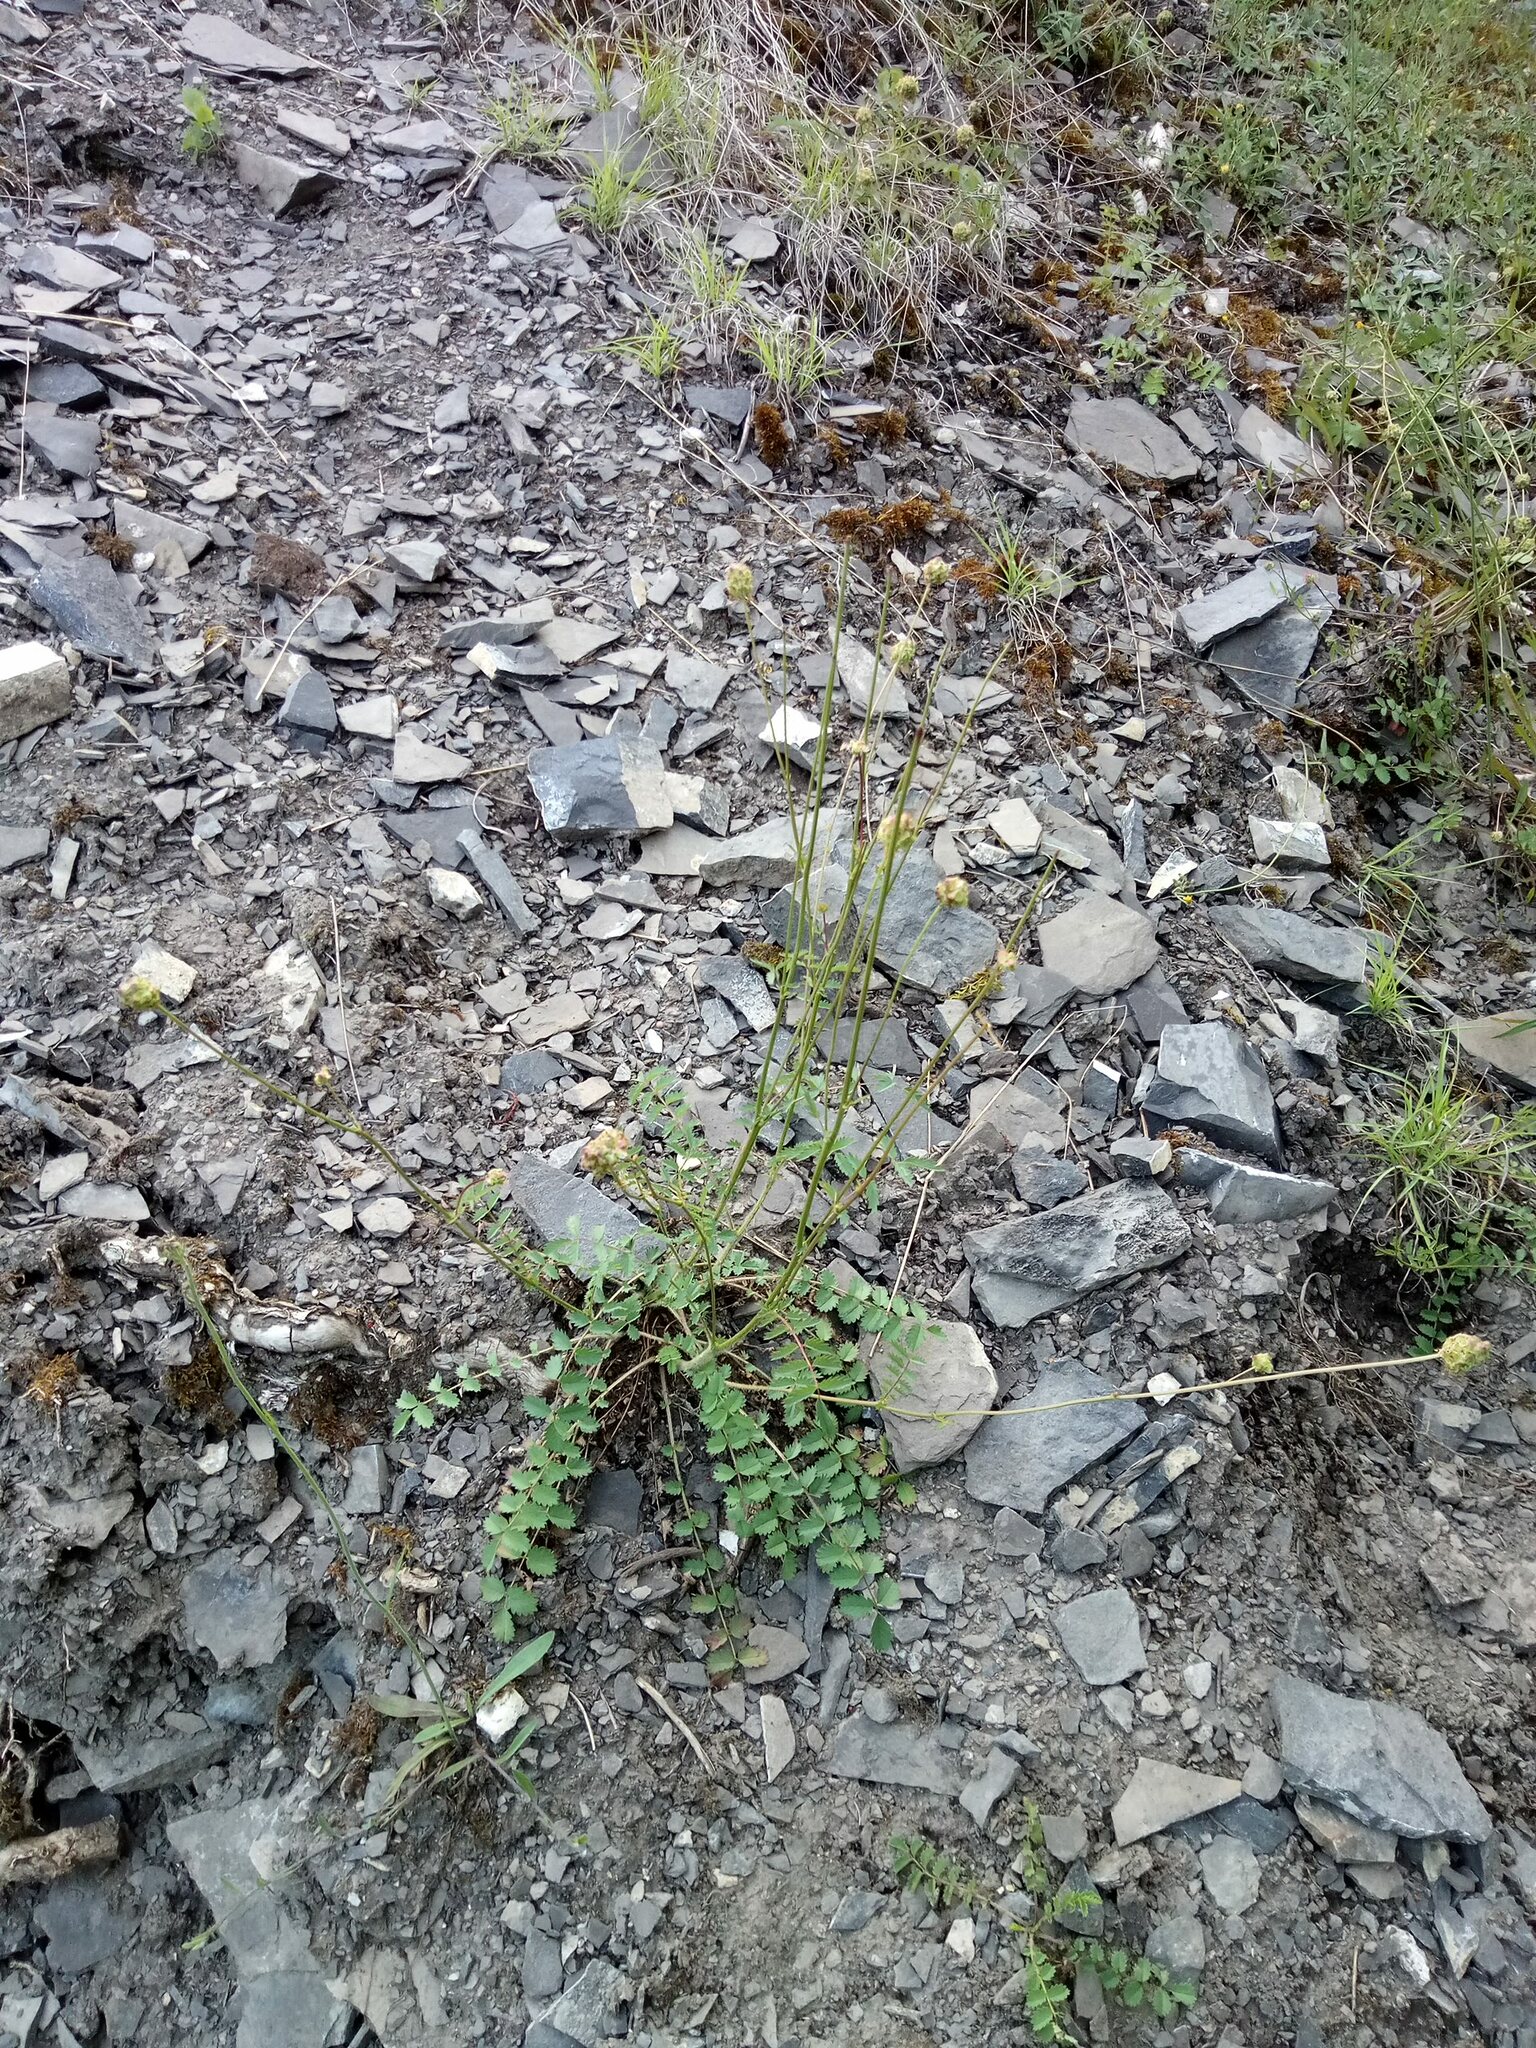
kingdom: Plantae
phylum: Tracheophyta
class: Magnoliopsida
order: Rosales
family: Rosaceae
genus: Poterium
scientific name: Poterium sanguisorba
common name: Salad burnet
